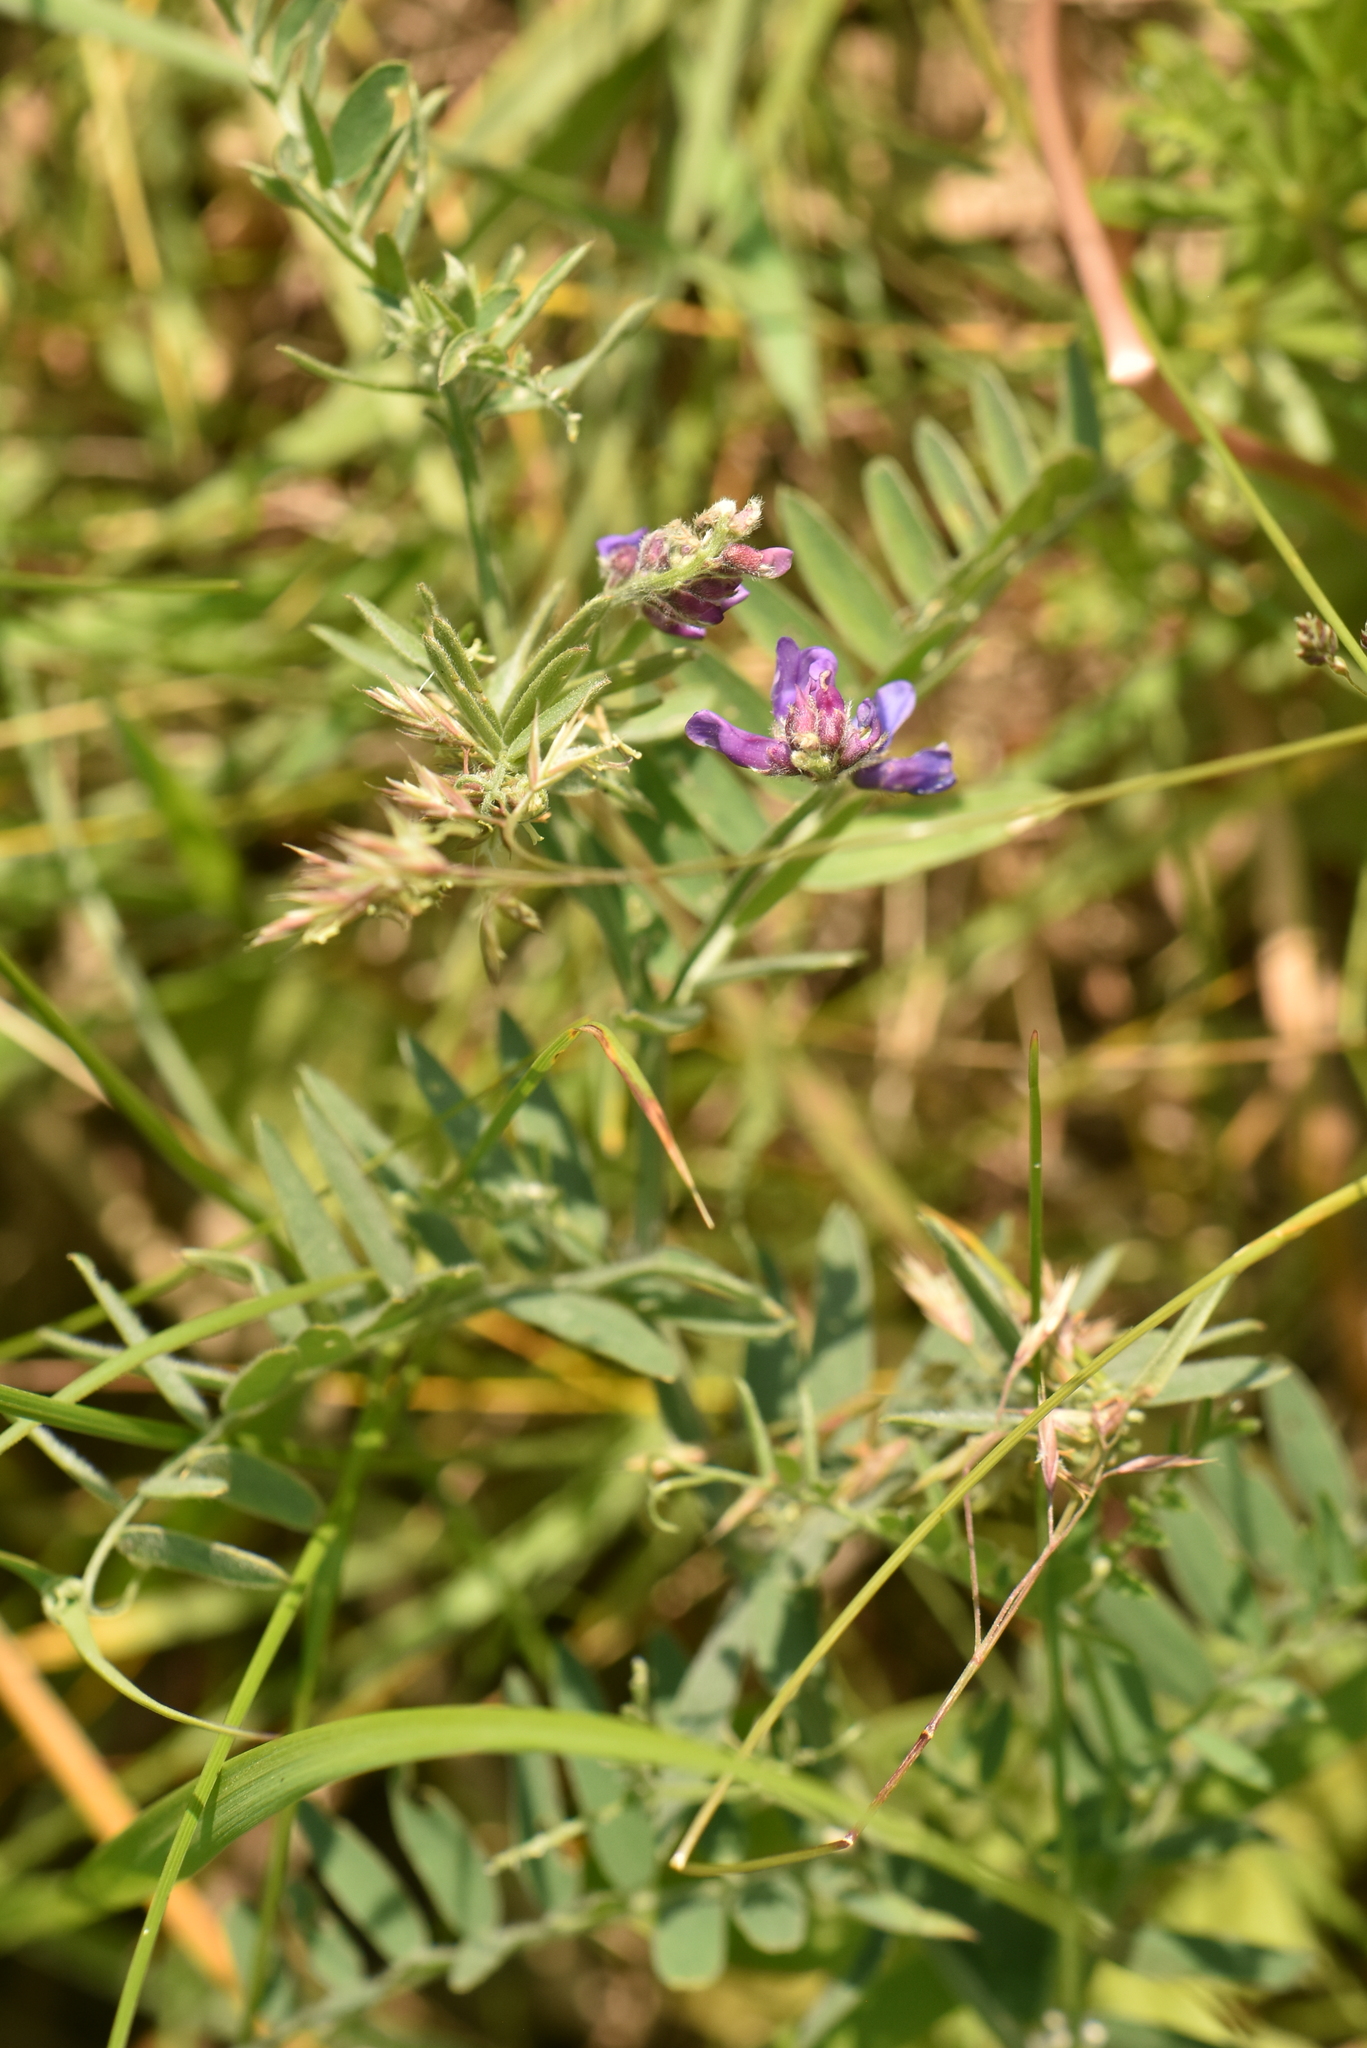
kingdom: Plantae
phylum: Tracheophyta
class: Magnoliopsida
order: Fabales
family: Fabaceae
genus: Vicia
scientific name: Vicia cracca
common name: Bird vetch
